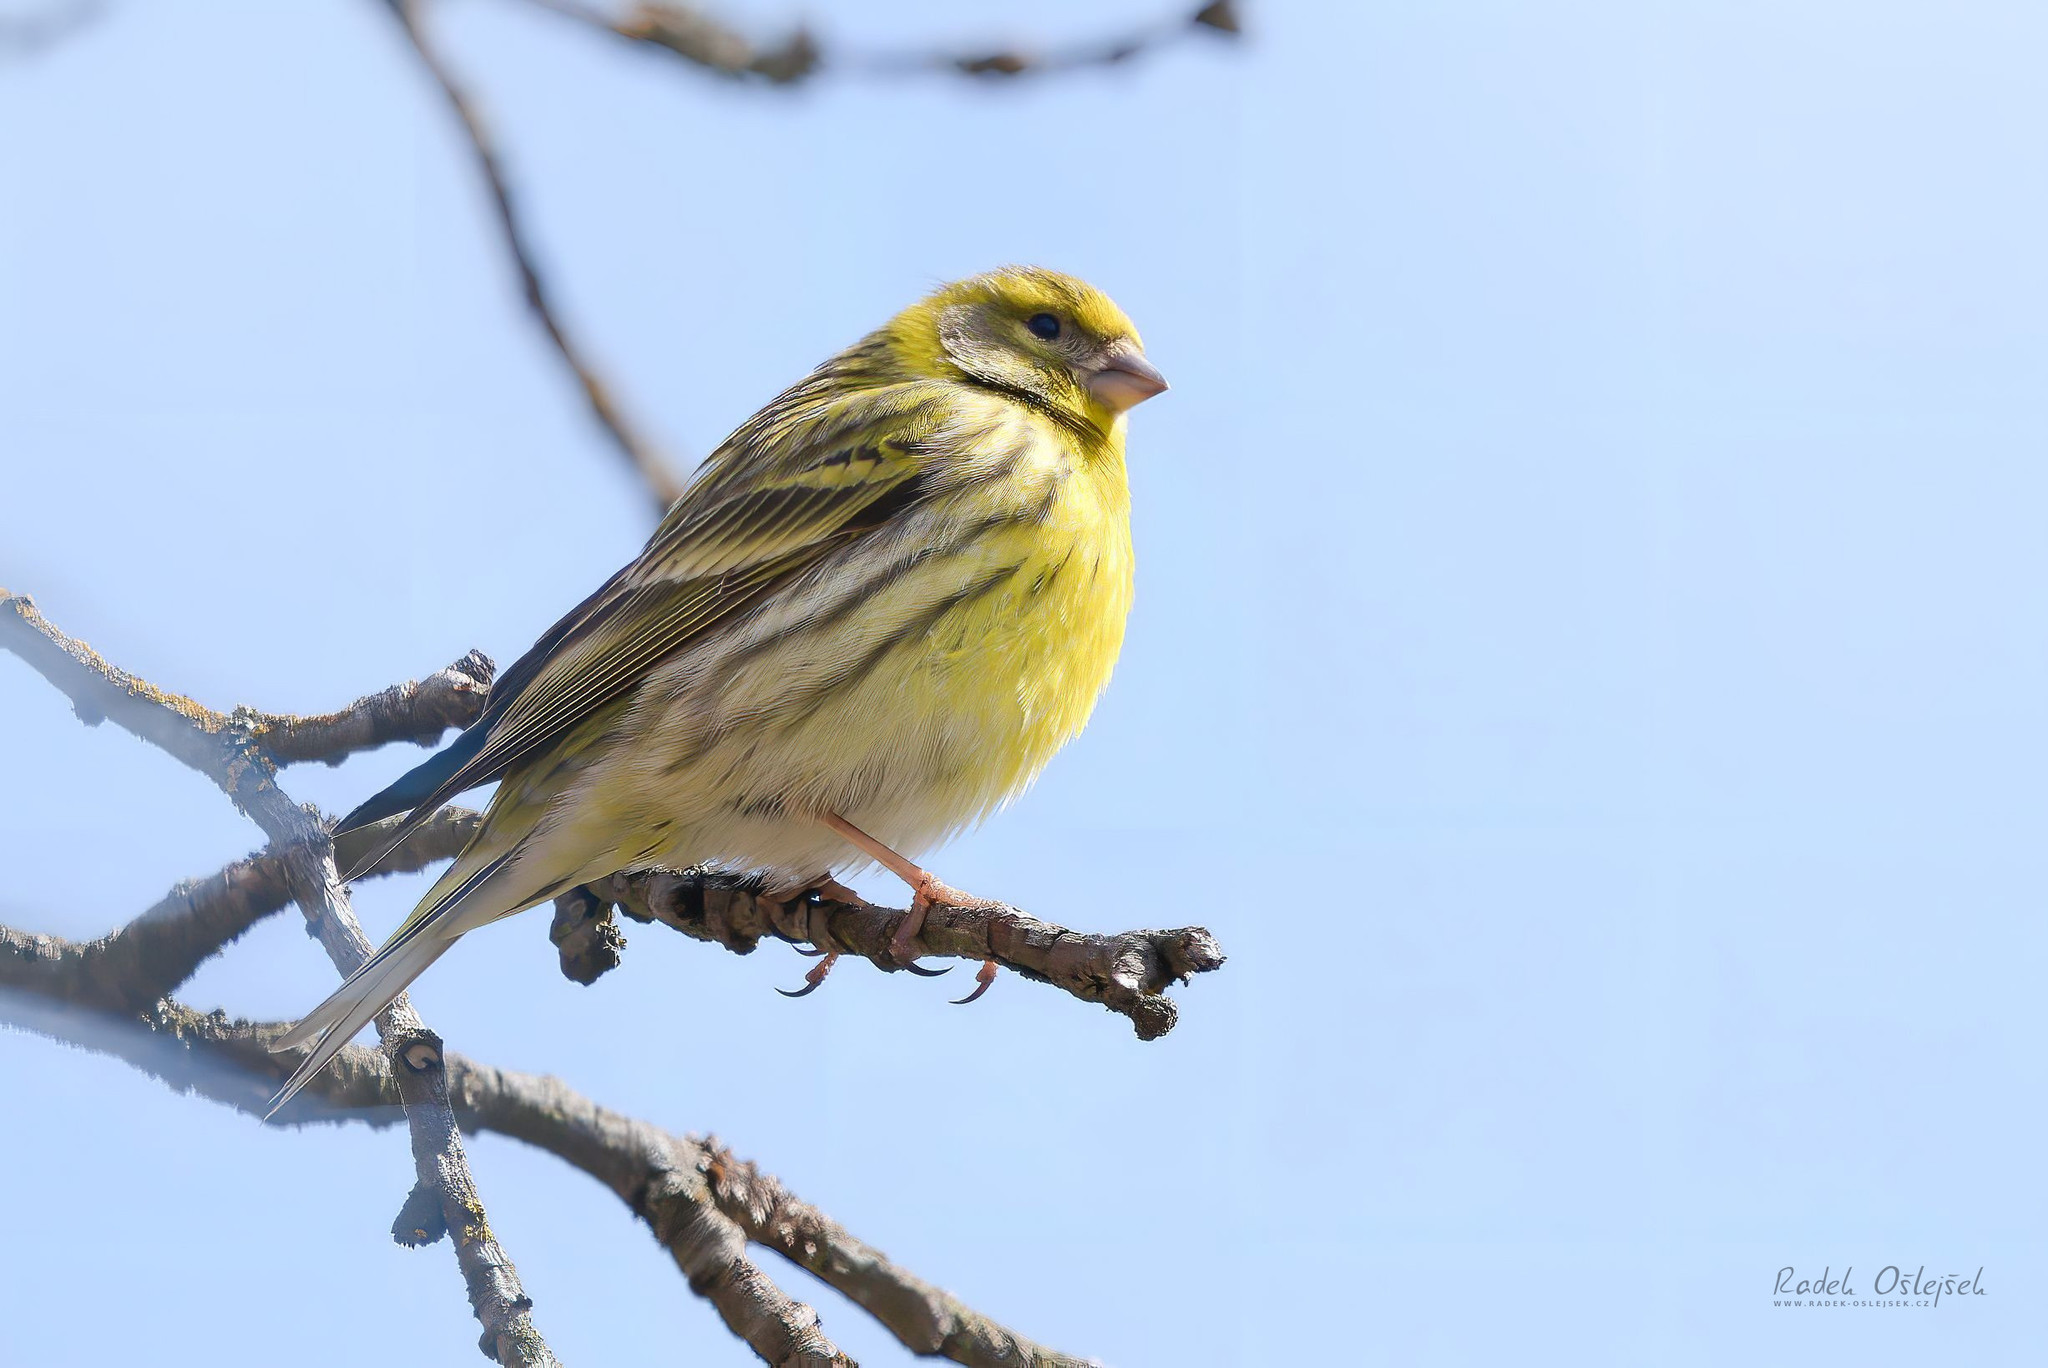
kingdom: Animalia
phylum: Chordata
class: Aves
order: Passeriformes
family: Fringillidae
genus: Serinus
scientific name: Serinus serinus
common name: European serin
